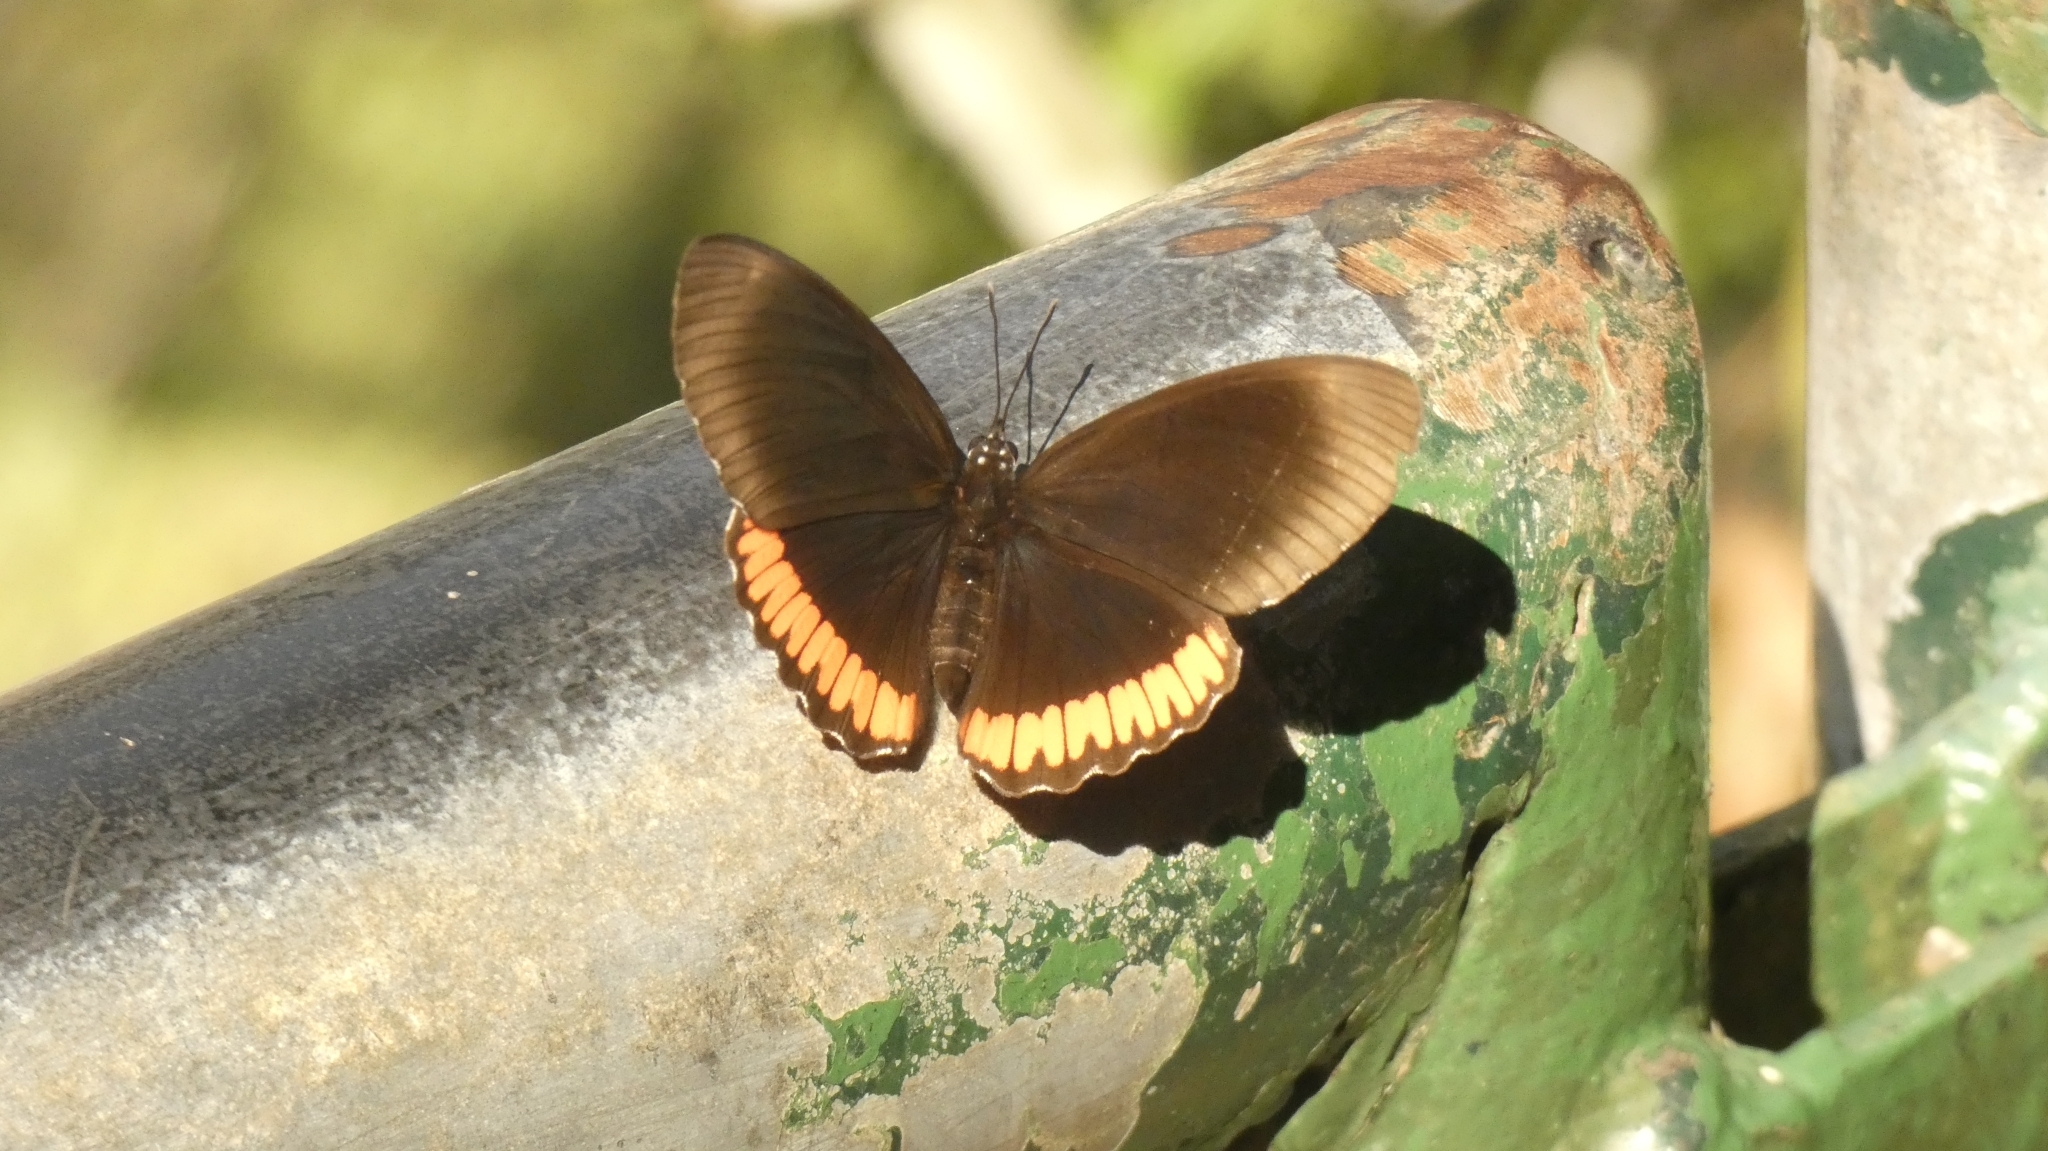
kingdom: Animalia
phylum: Arthropoda
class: Insecta
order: Lepidoptera
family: Sesiidae
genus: Sesia
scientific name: Sesia Biblis hyperia
